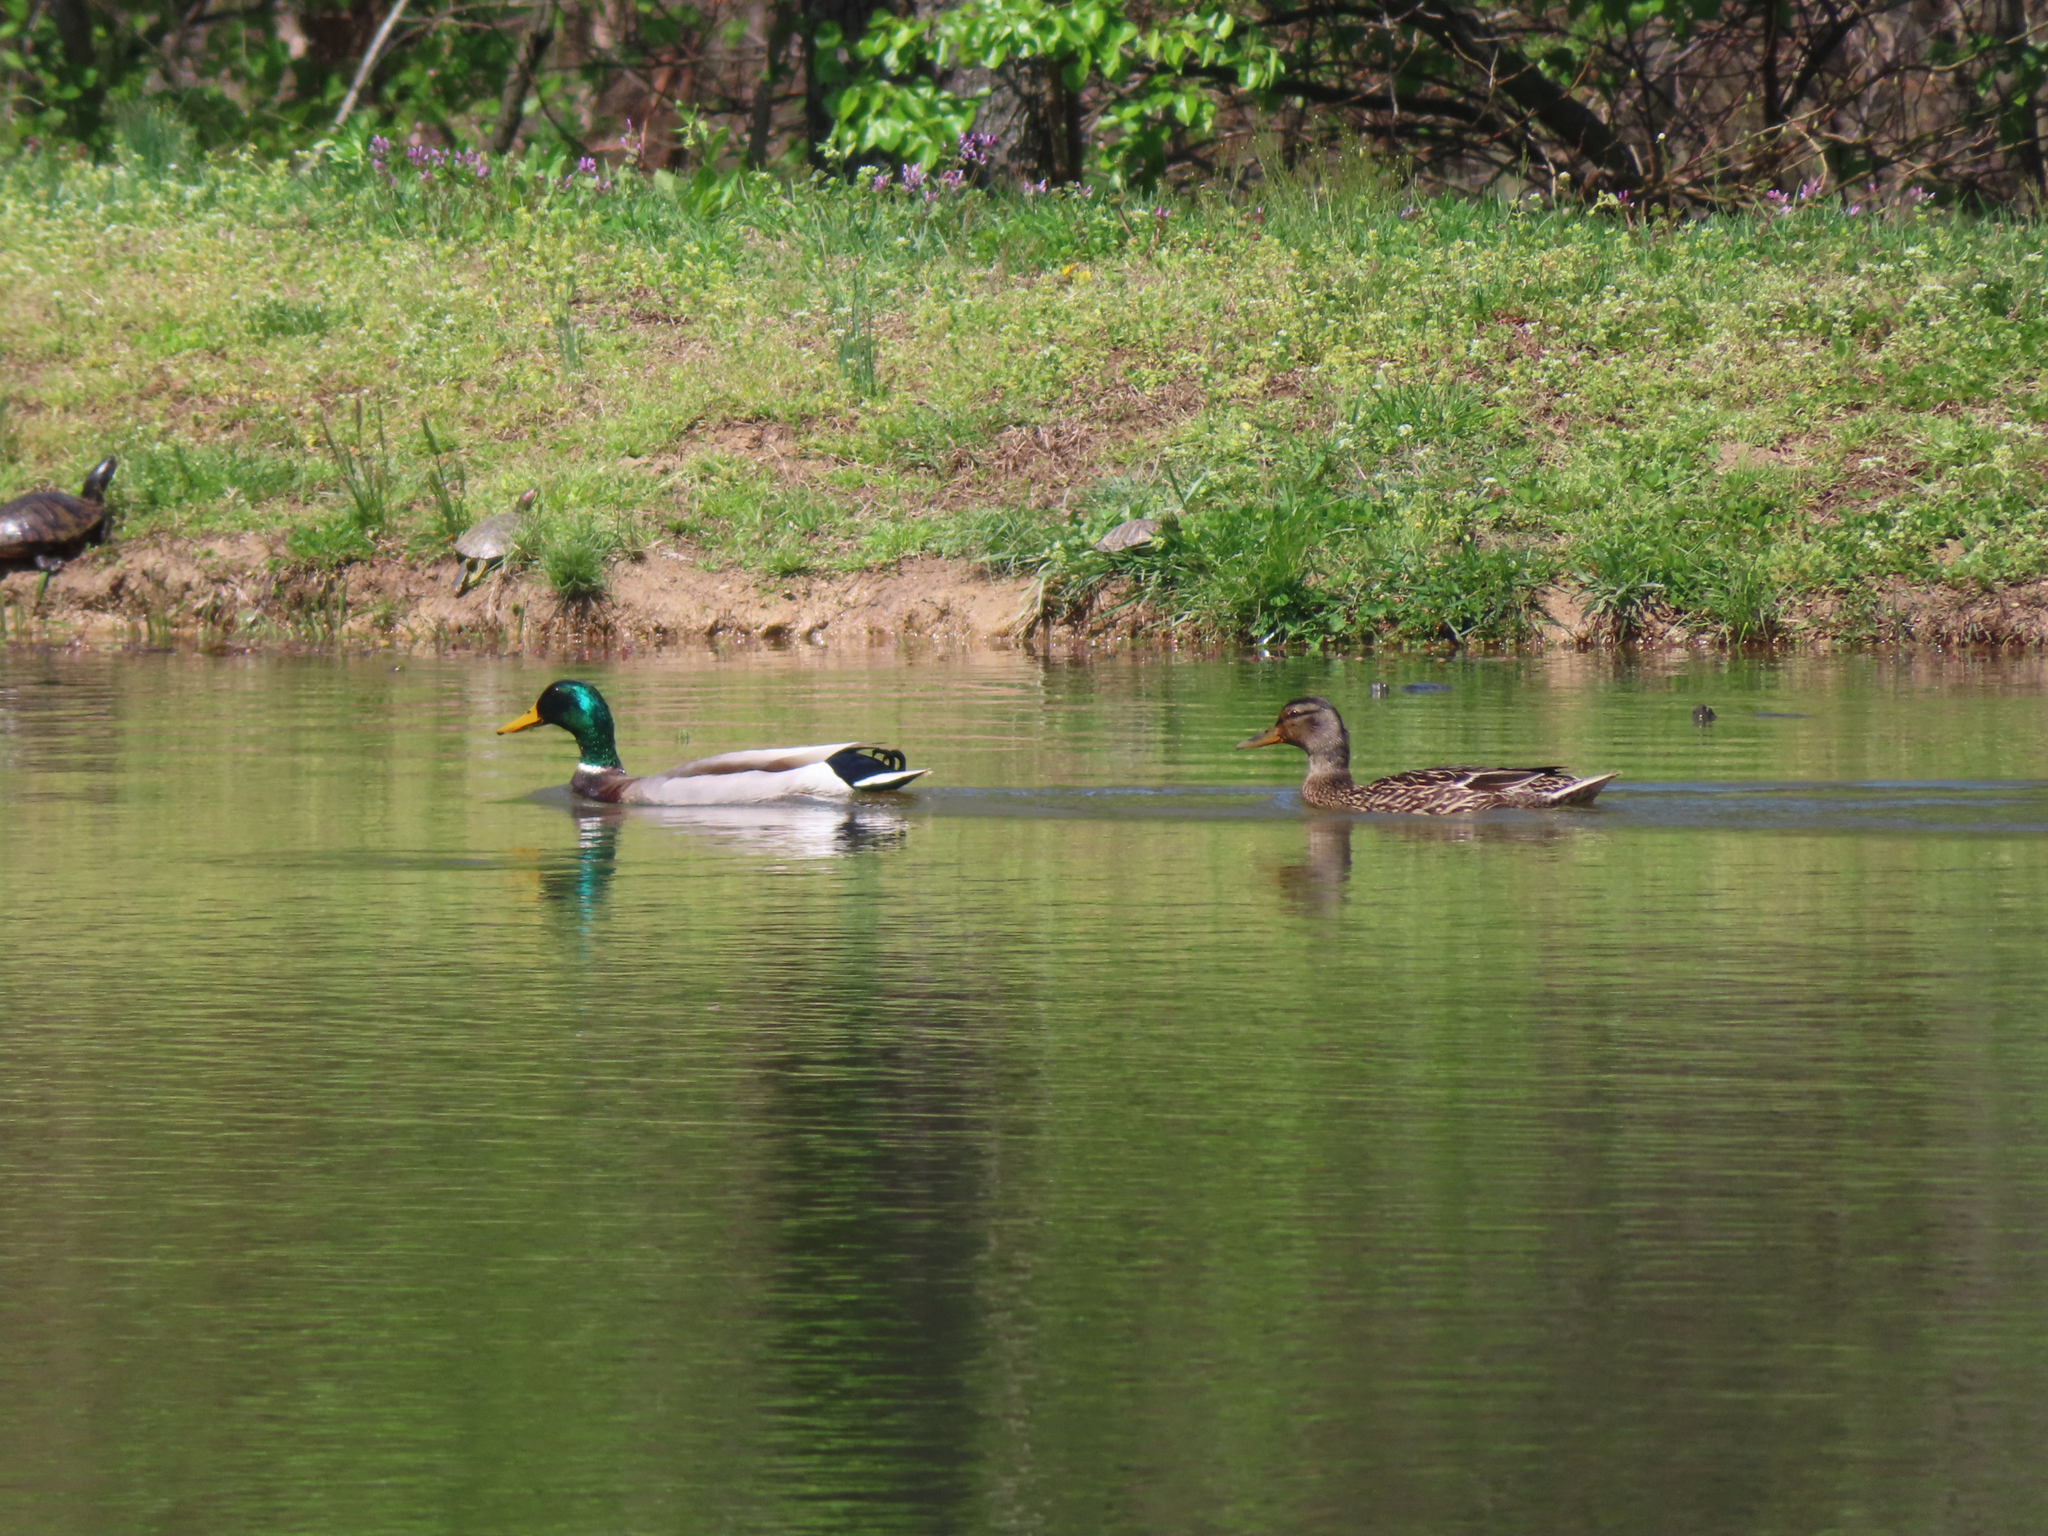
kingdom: Animalia
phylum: Chordata
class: Aves
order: Anseriformes
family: Anatidae
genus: Anas
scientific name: Anas platyrhynchos
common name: Mallard
